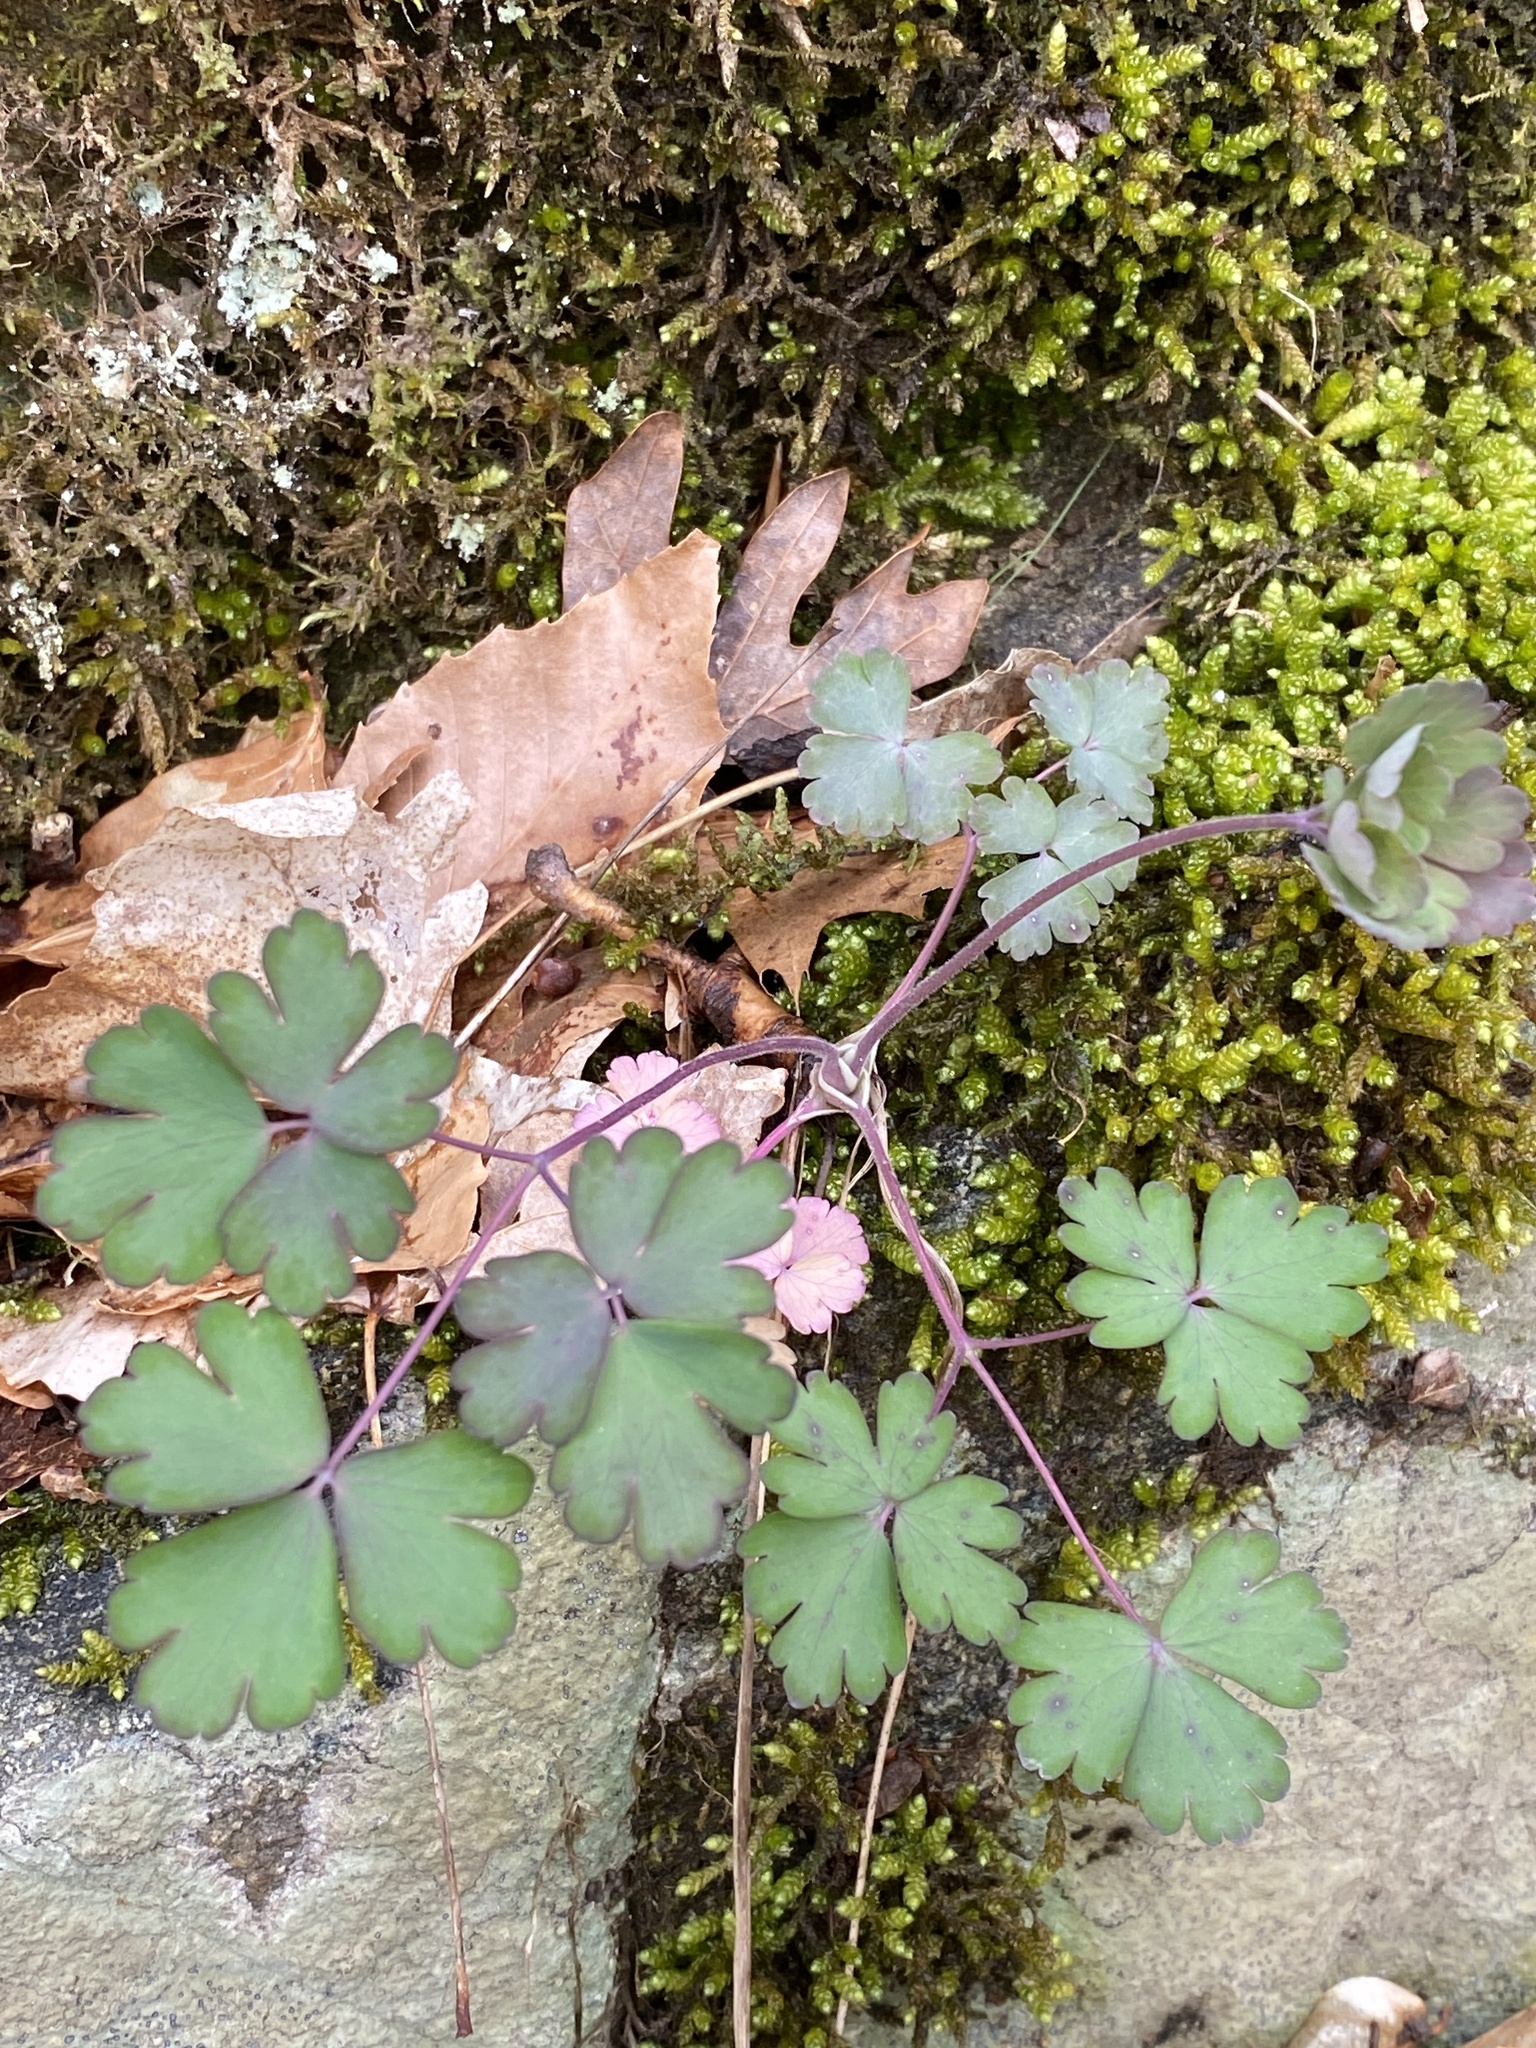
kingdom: Plantae
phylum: Tracheophyta
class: Magnoliopsida
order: Ranunculales
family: Ranunculaceae
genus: Aquilegia
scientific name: Aquilegia canadensis
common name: American columbine
